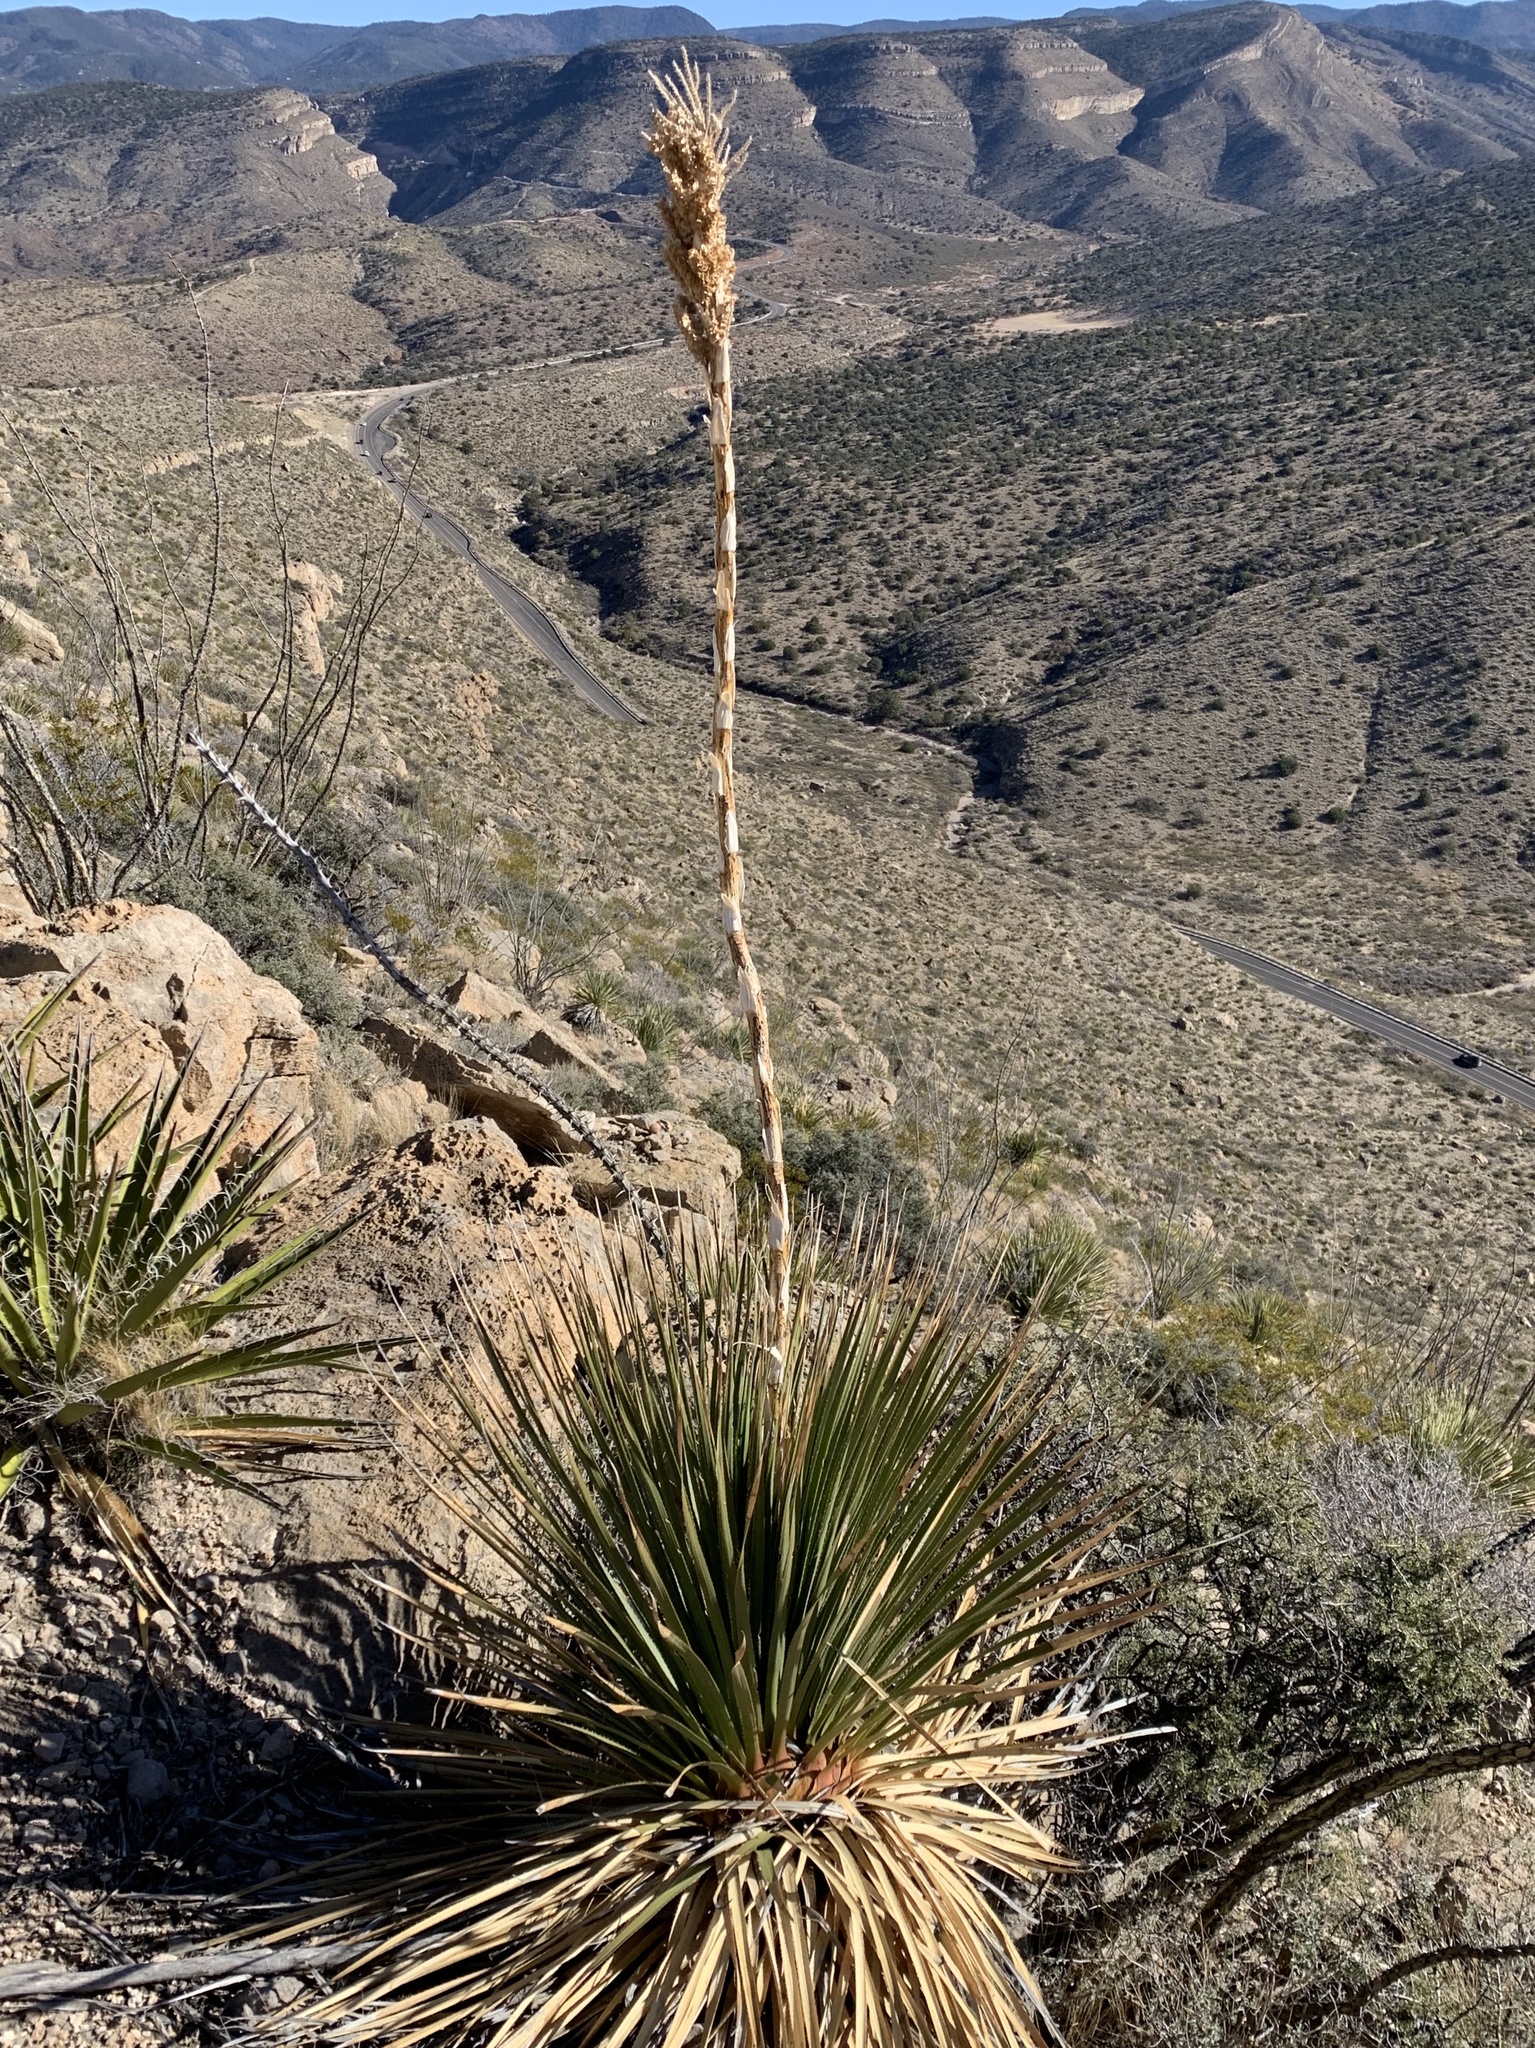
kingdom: Plantae
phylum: Tracheophyta
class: Liliopsida
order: Asparagales
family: Asparagaceae
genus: Dasylirion
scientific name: Dasylirion wheeleri
